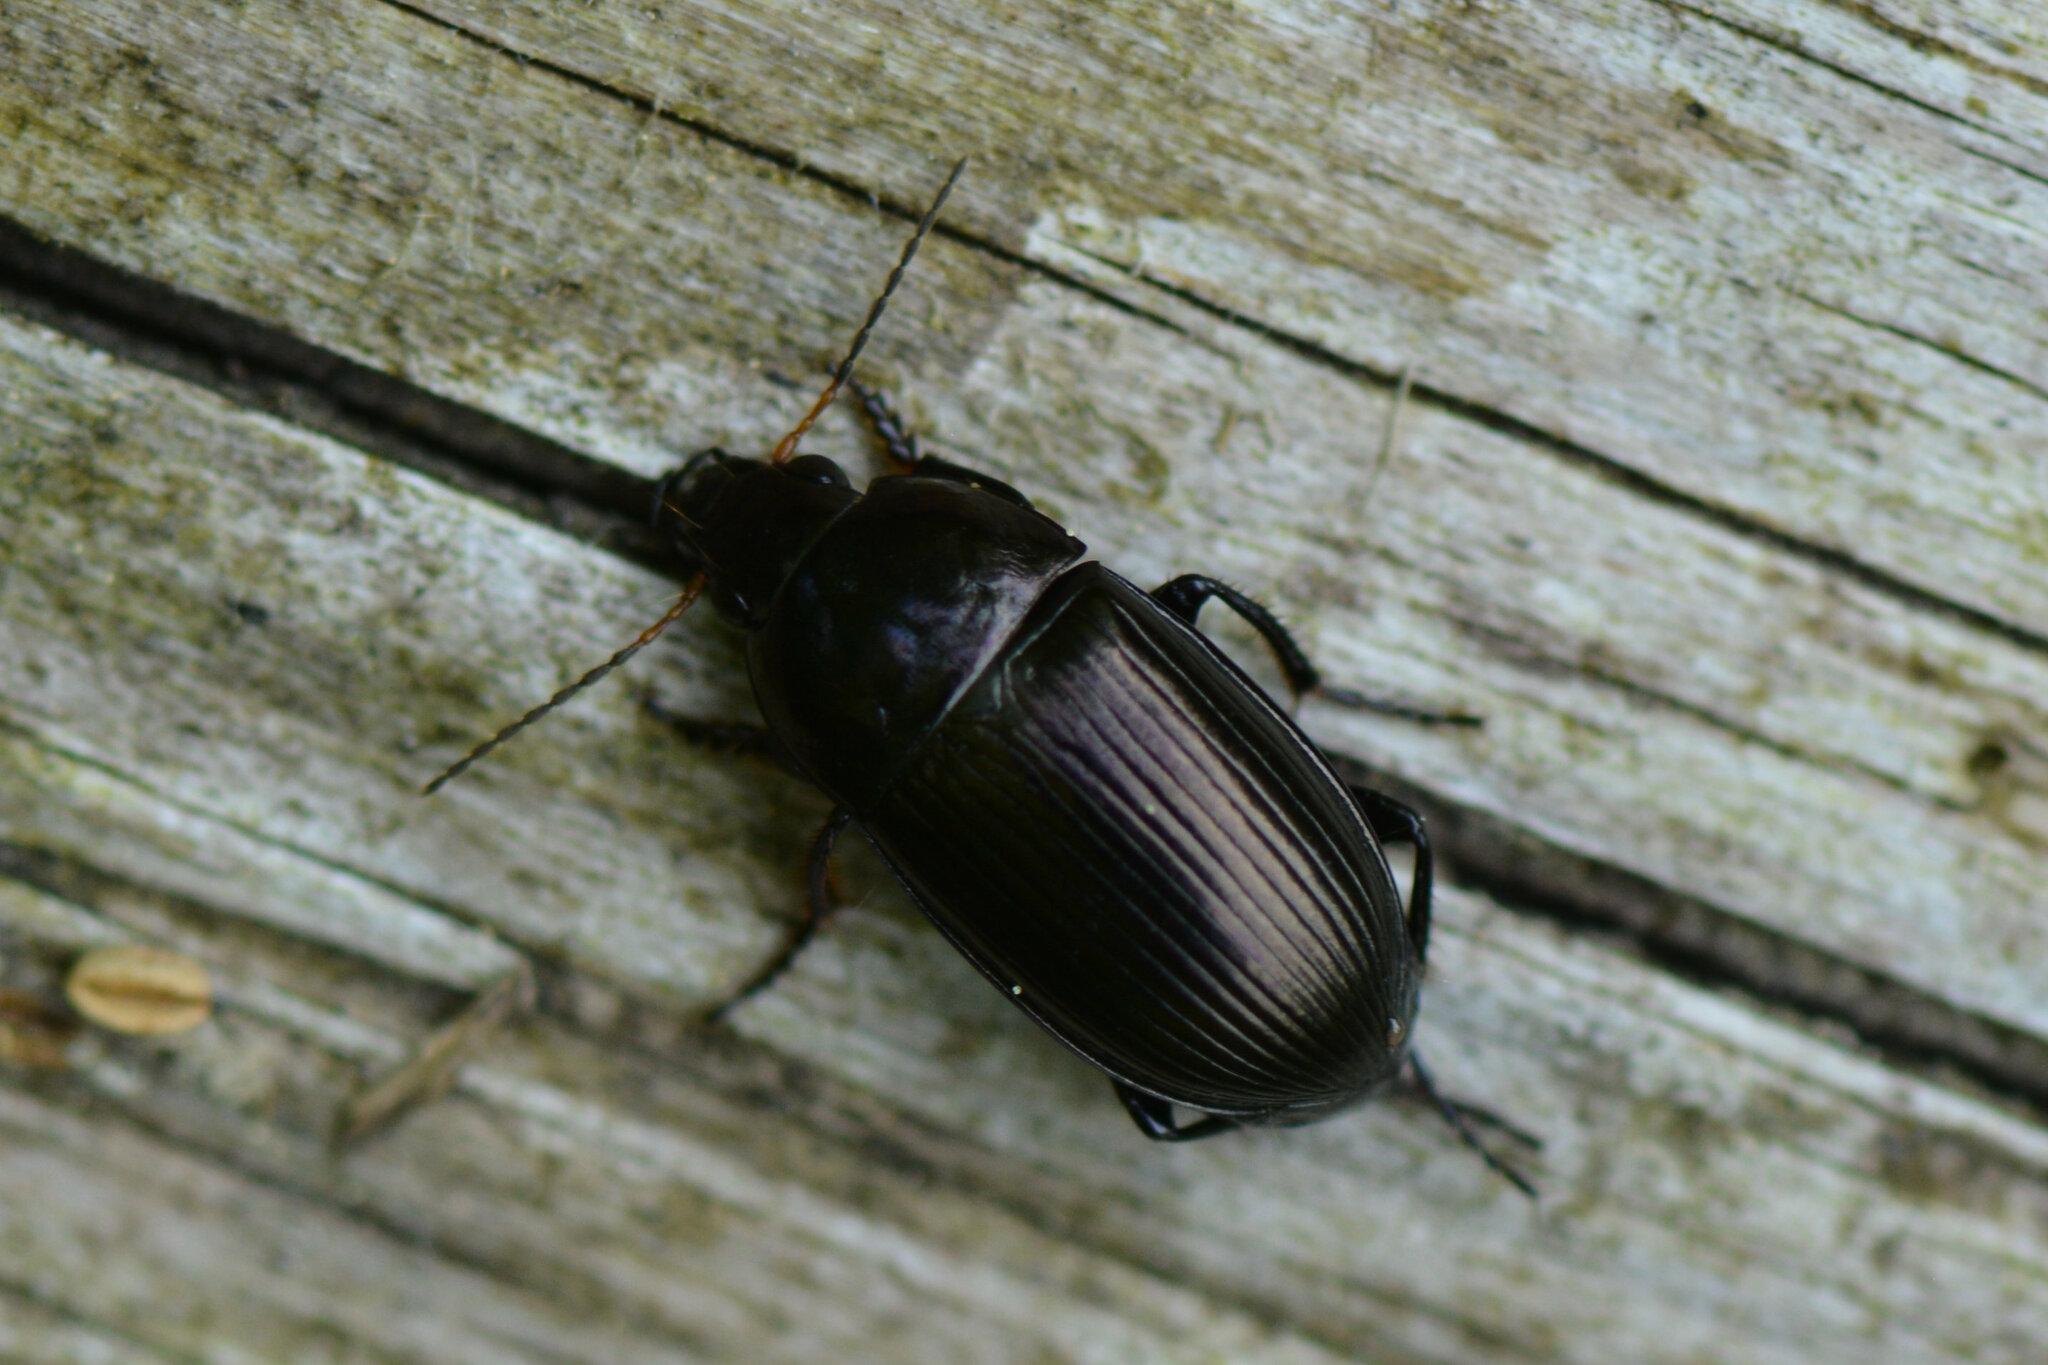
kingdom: Animalia
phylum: Arthropoda
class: Insecta
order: Coleoptera
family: Carabidae
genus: Amara
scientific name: Amara ovata
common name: Ovate harp ground beetle
